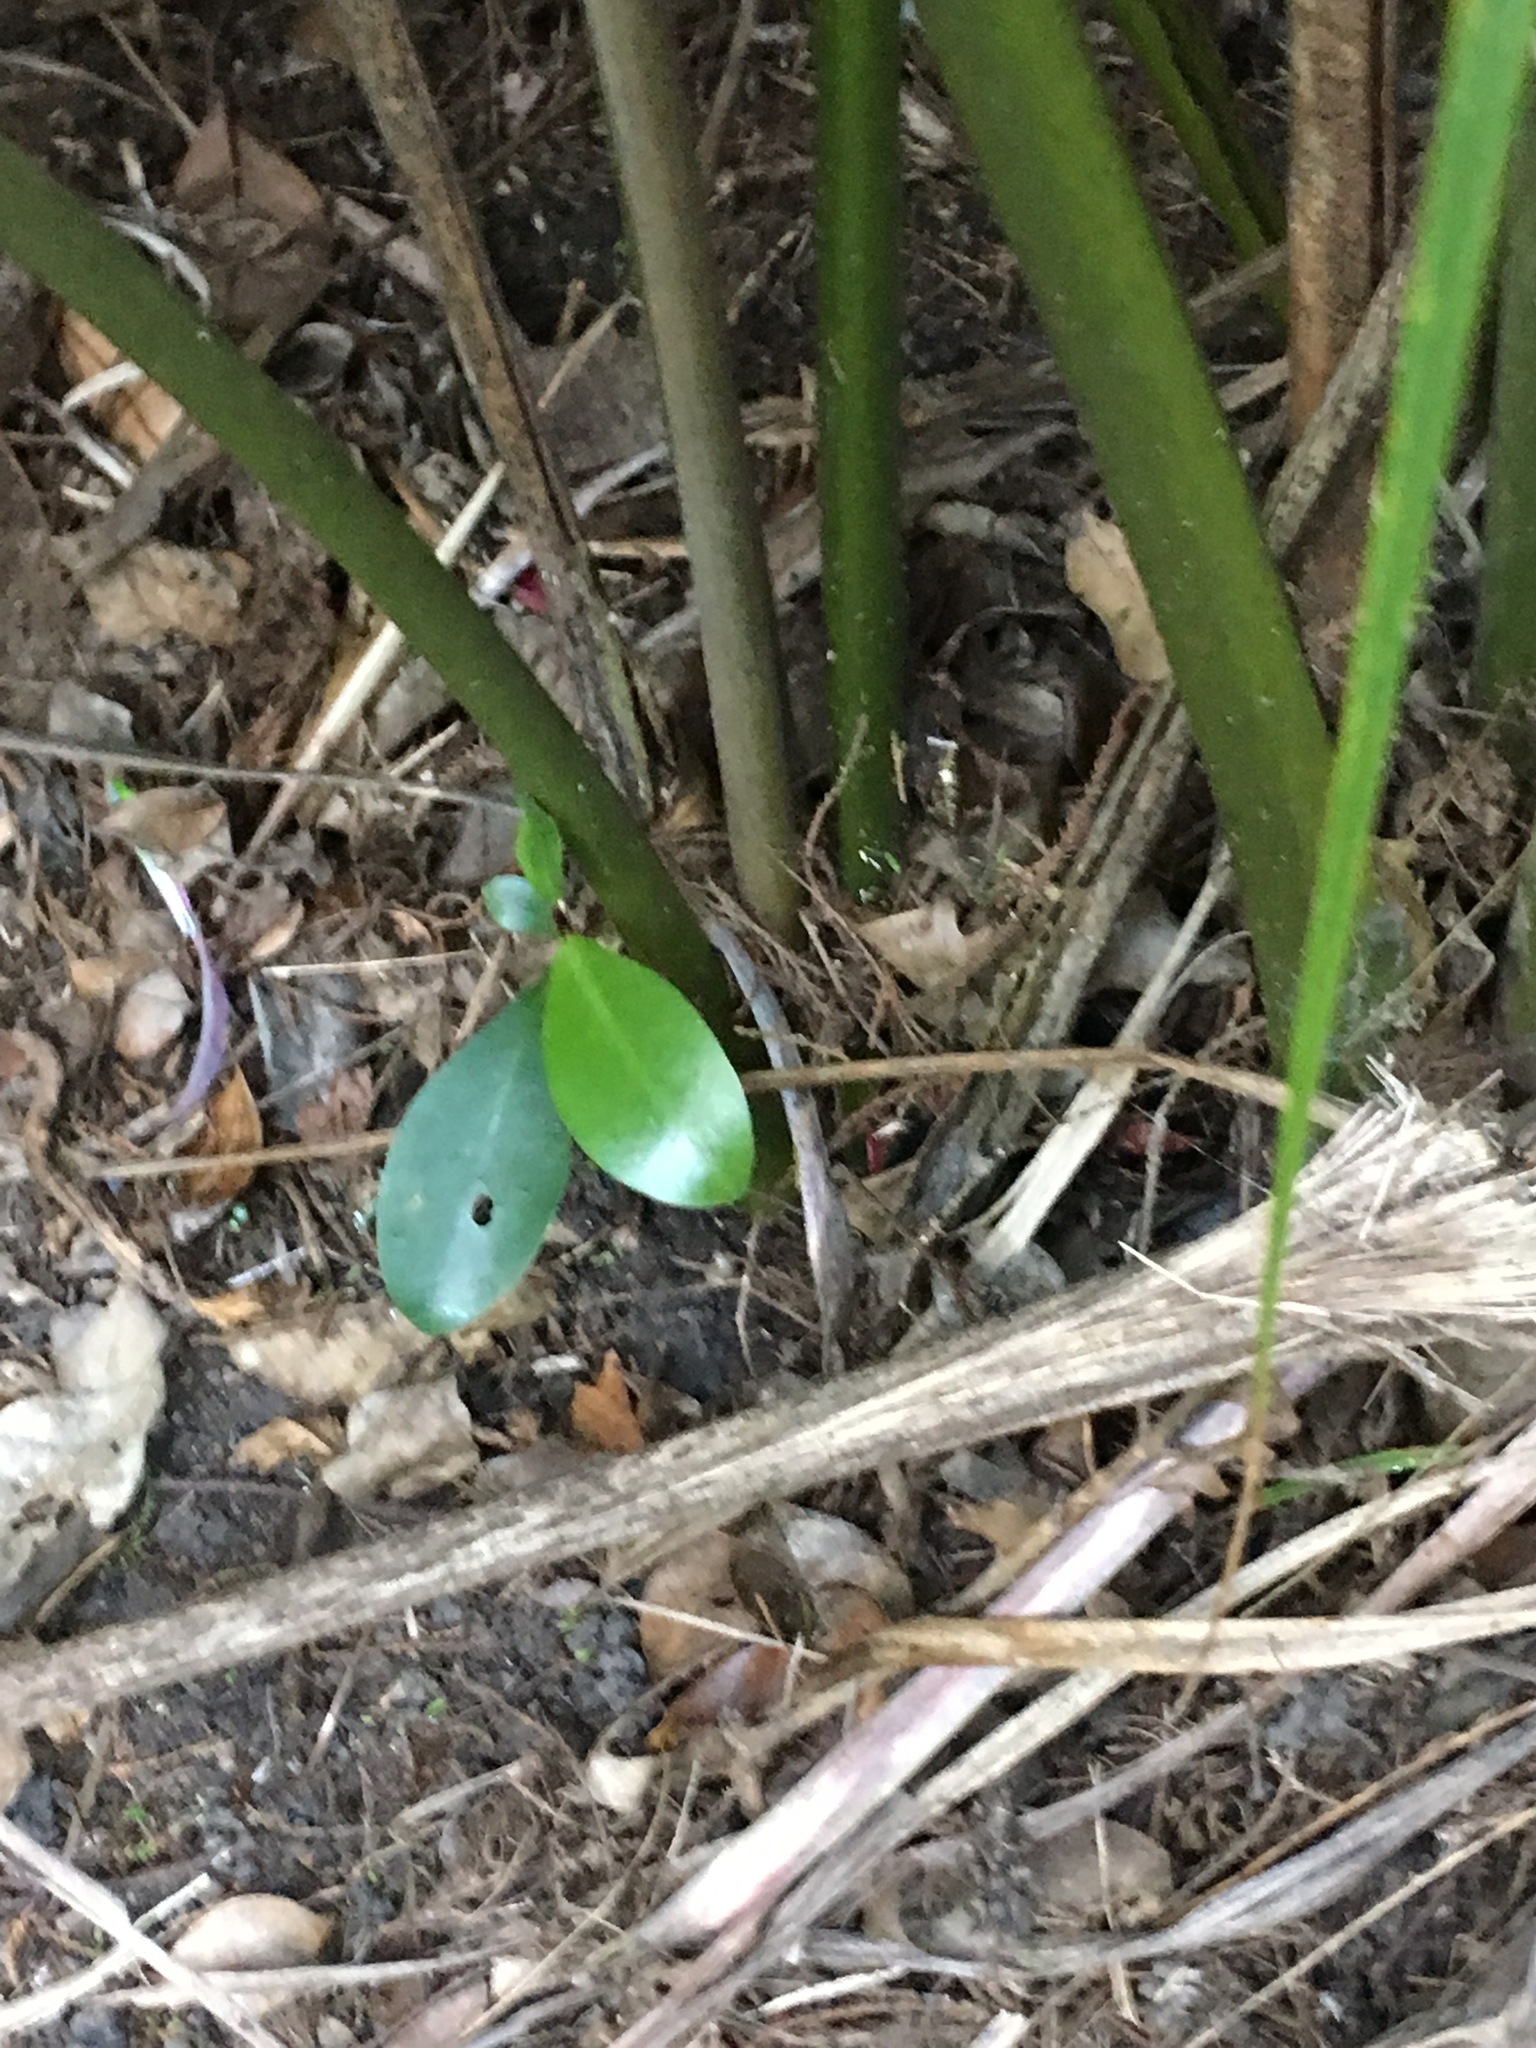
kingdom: Plantae
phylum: Tracheophyta
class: Magnoliopsida
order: Cucurbitales
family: Corynocarpaceae
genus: Corynocarpus
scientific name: Corynocarpus laevigatus
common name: New zealand laurel
